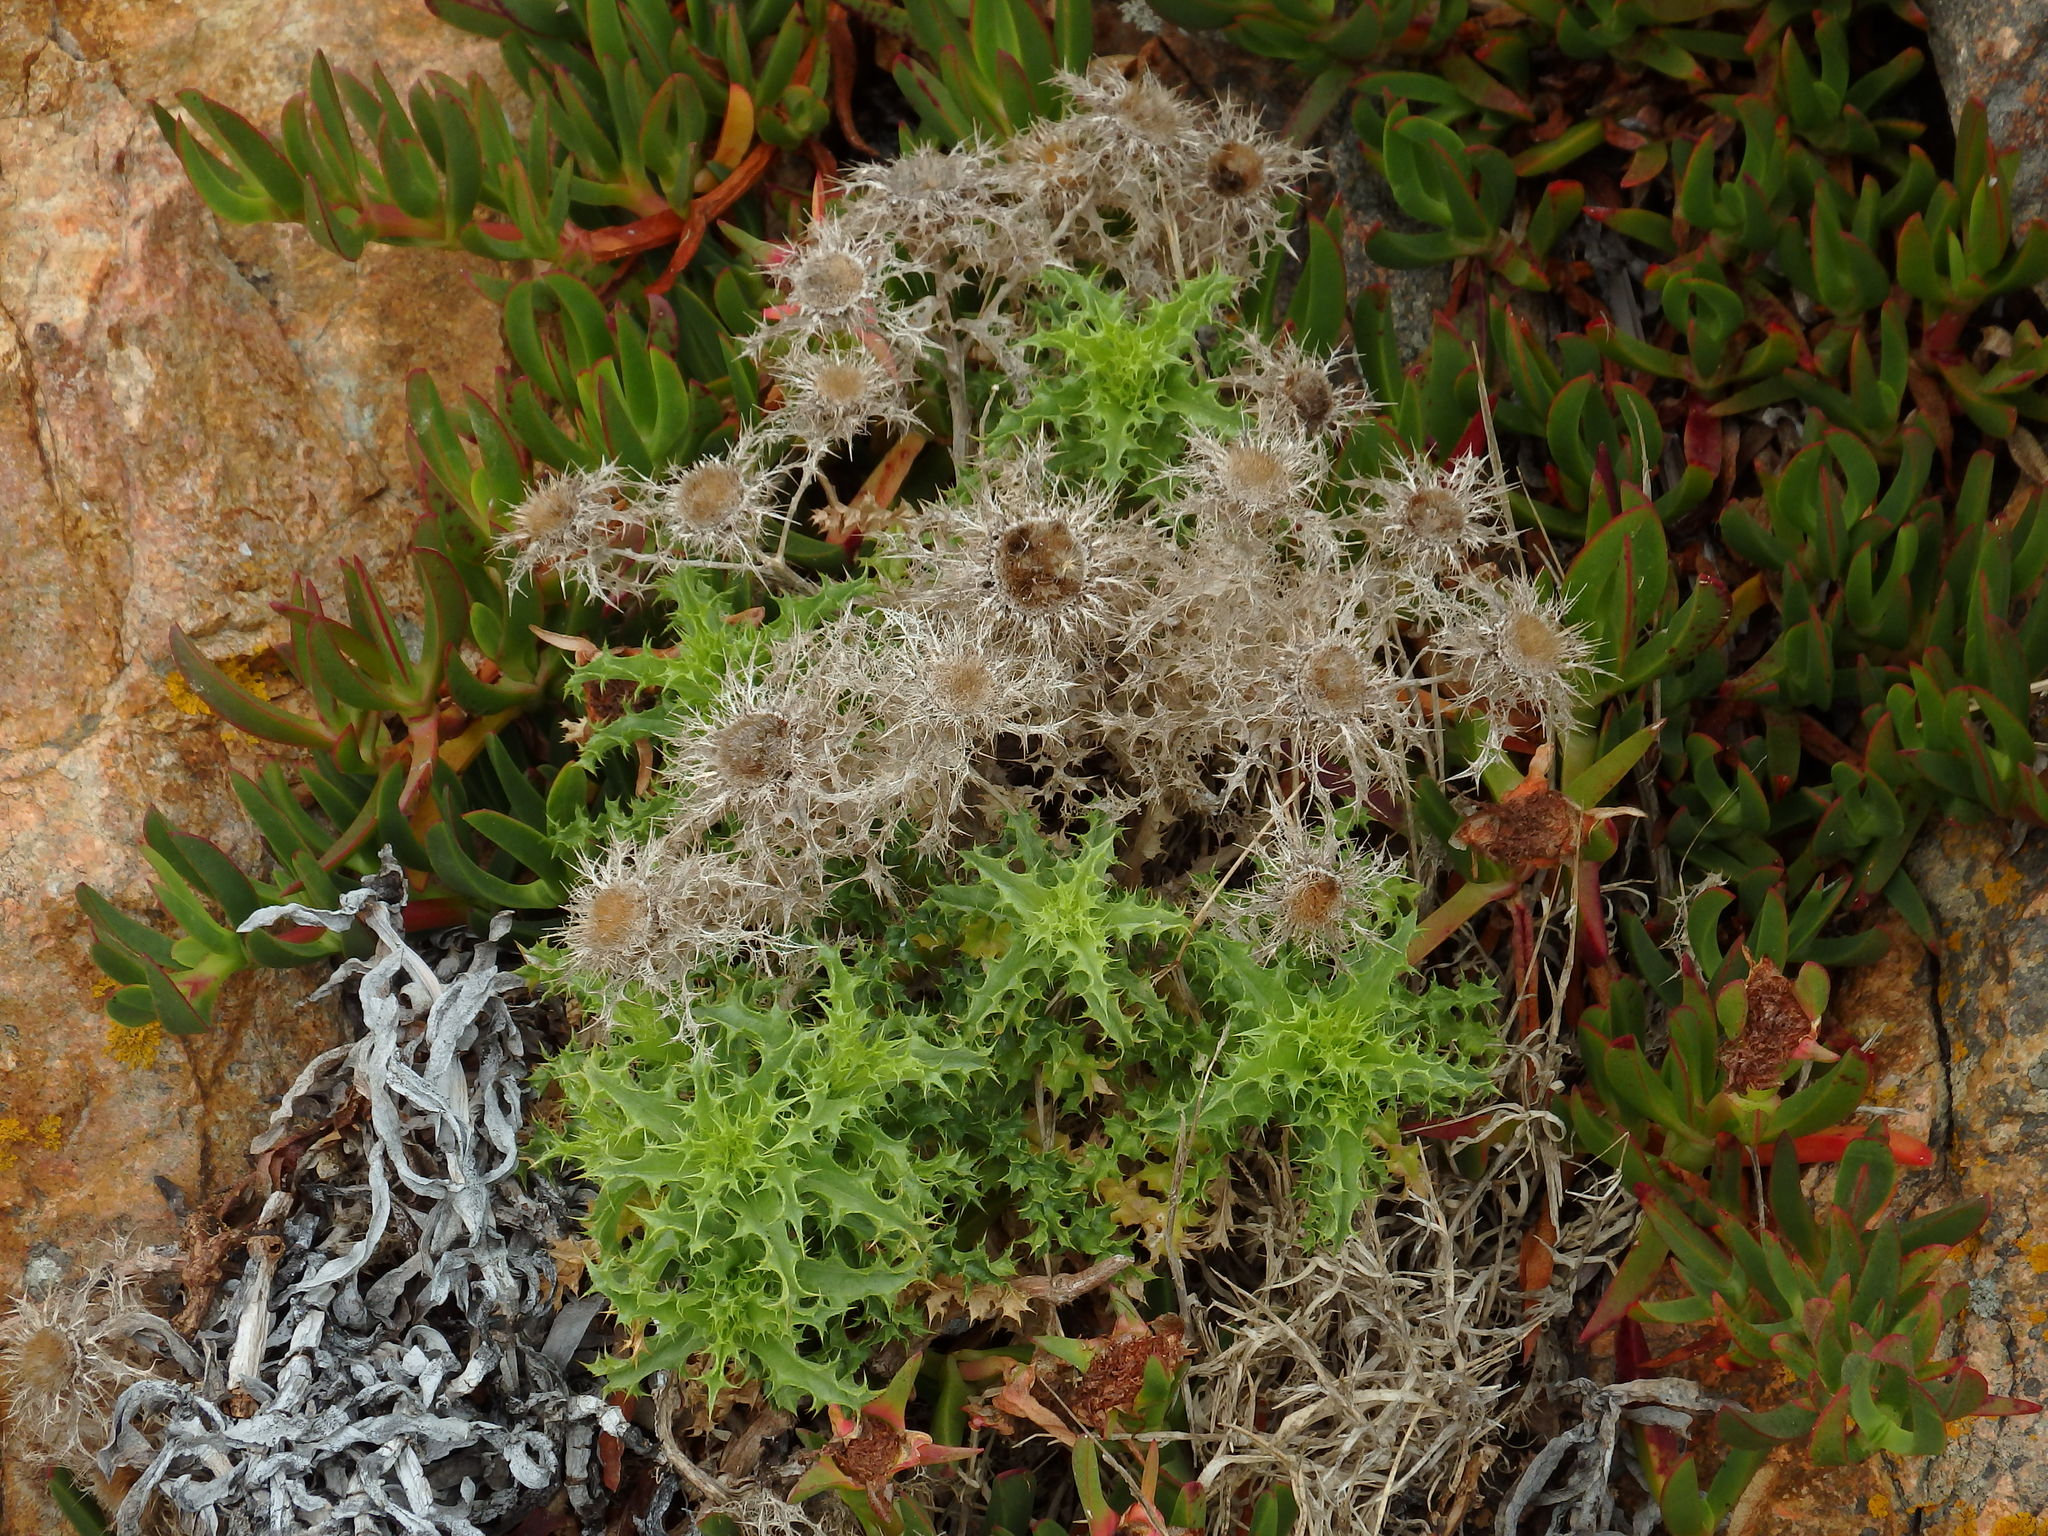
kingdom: Plantae
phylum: Tracheophyta
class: Magnoliopsida
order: Asterales
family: Asteraceae
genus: Carlina
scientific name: Carlina hispanica
